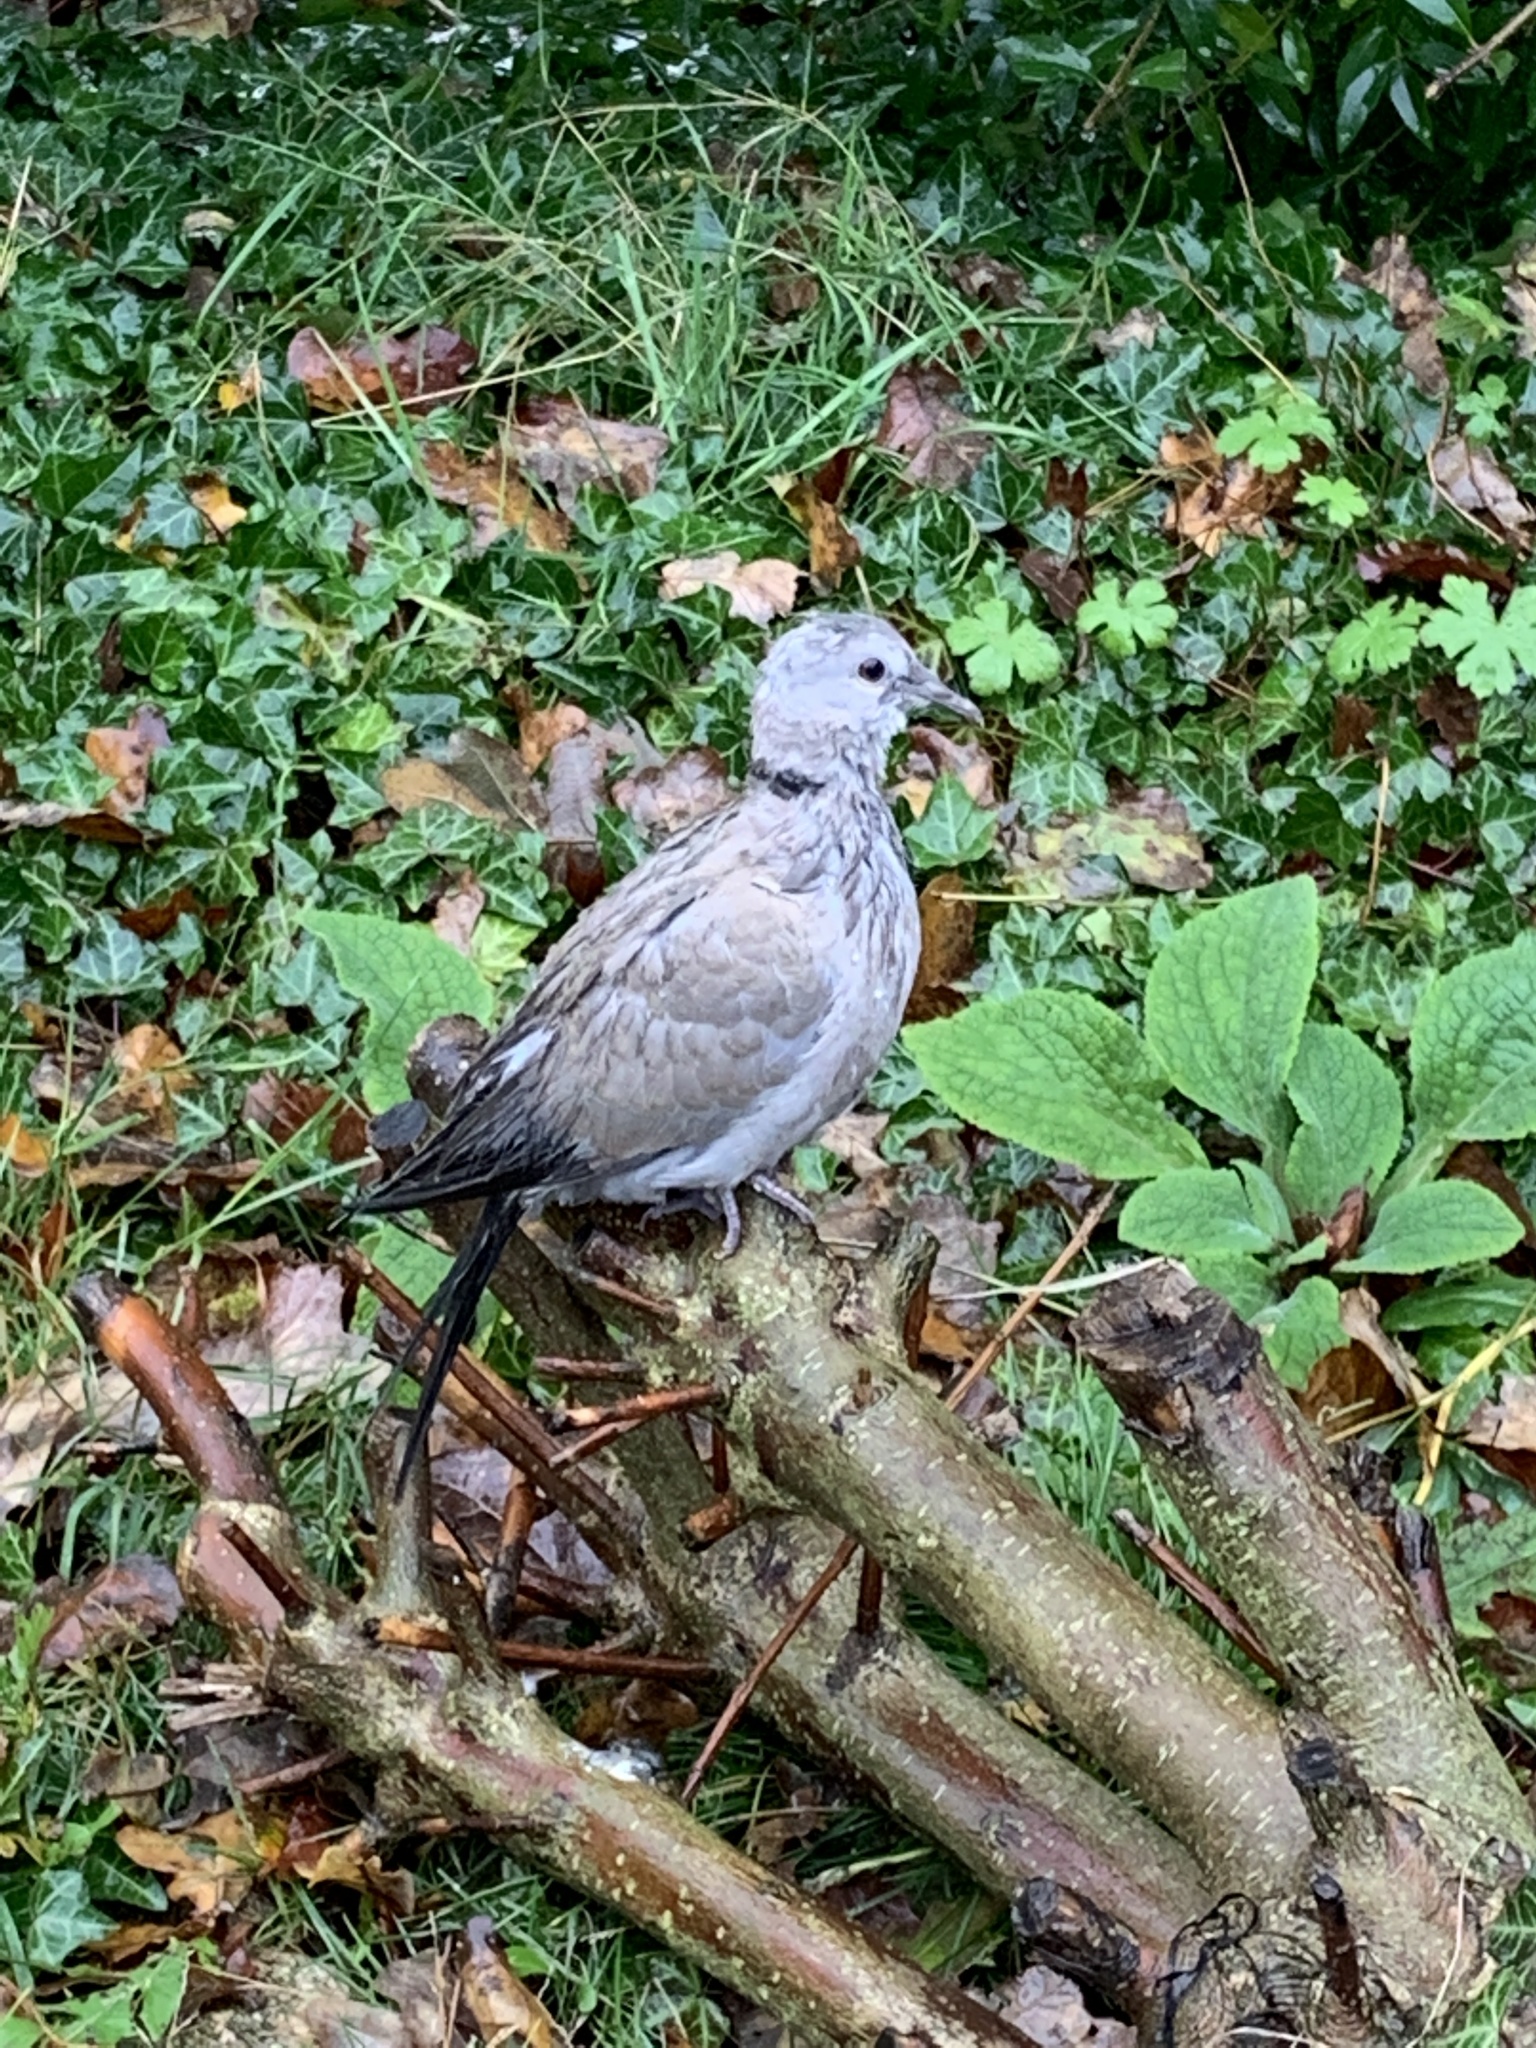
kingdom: Animalia
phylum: Chordata
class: Aves
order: Columbiformes
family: Columbidae
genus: Streptopelia
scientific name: Streptopelia decaocto
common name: Eurasian collared dove
